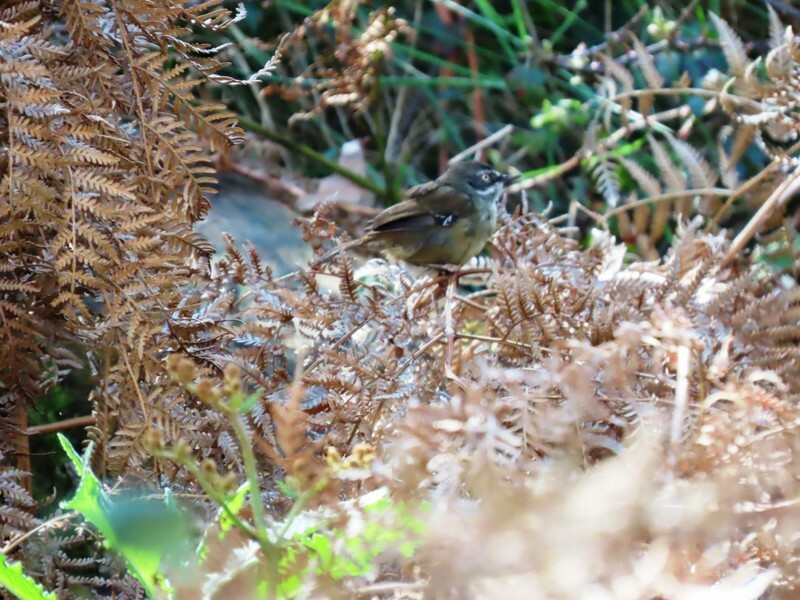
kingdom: Animalia
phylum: Chordata
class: Aves
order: Passeriformes
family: Acanthizidae
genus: Sericornis
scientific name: Sericornis frontalis
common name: White-browed scrubwren
